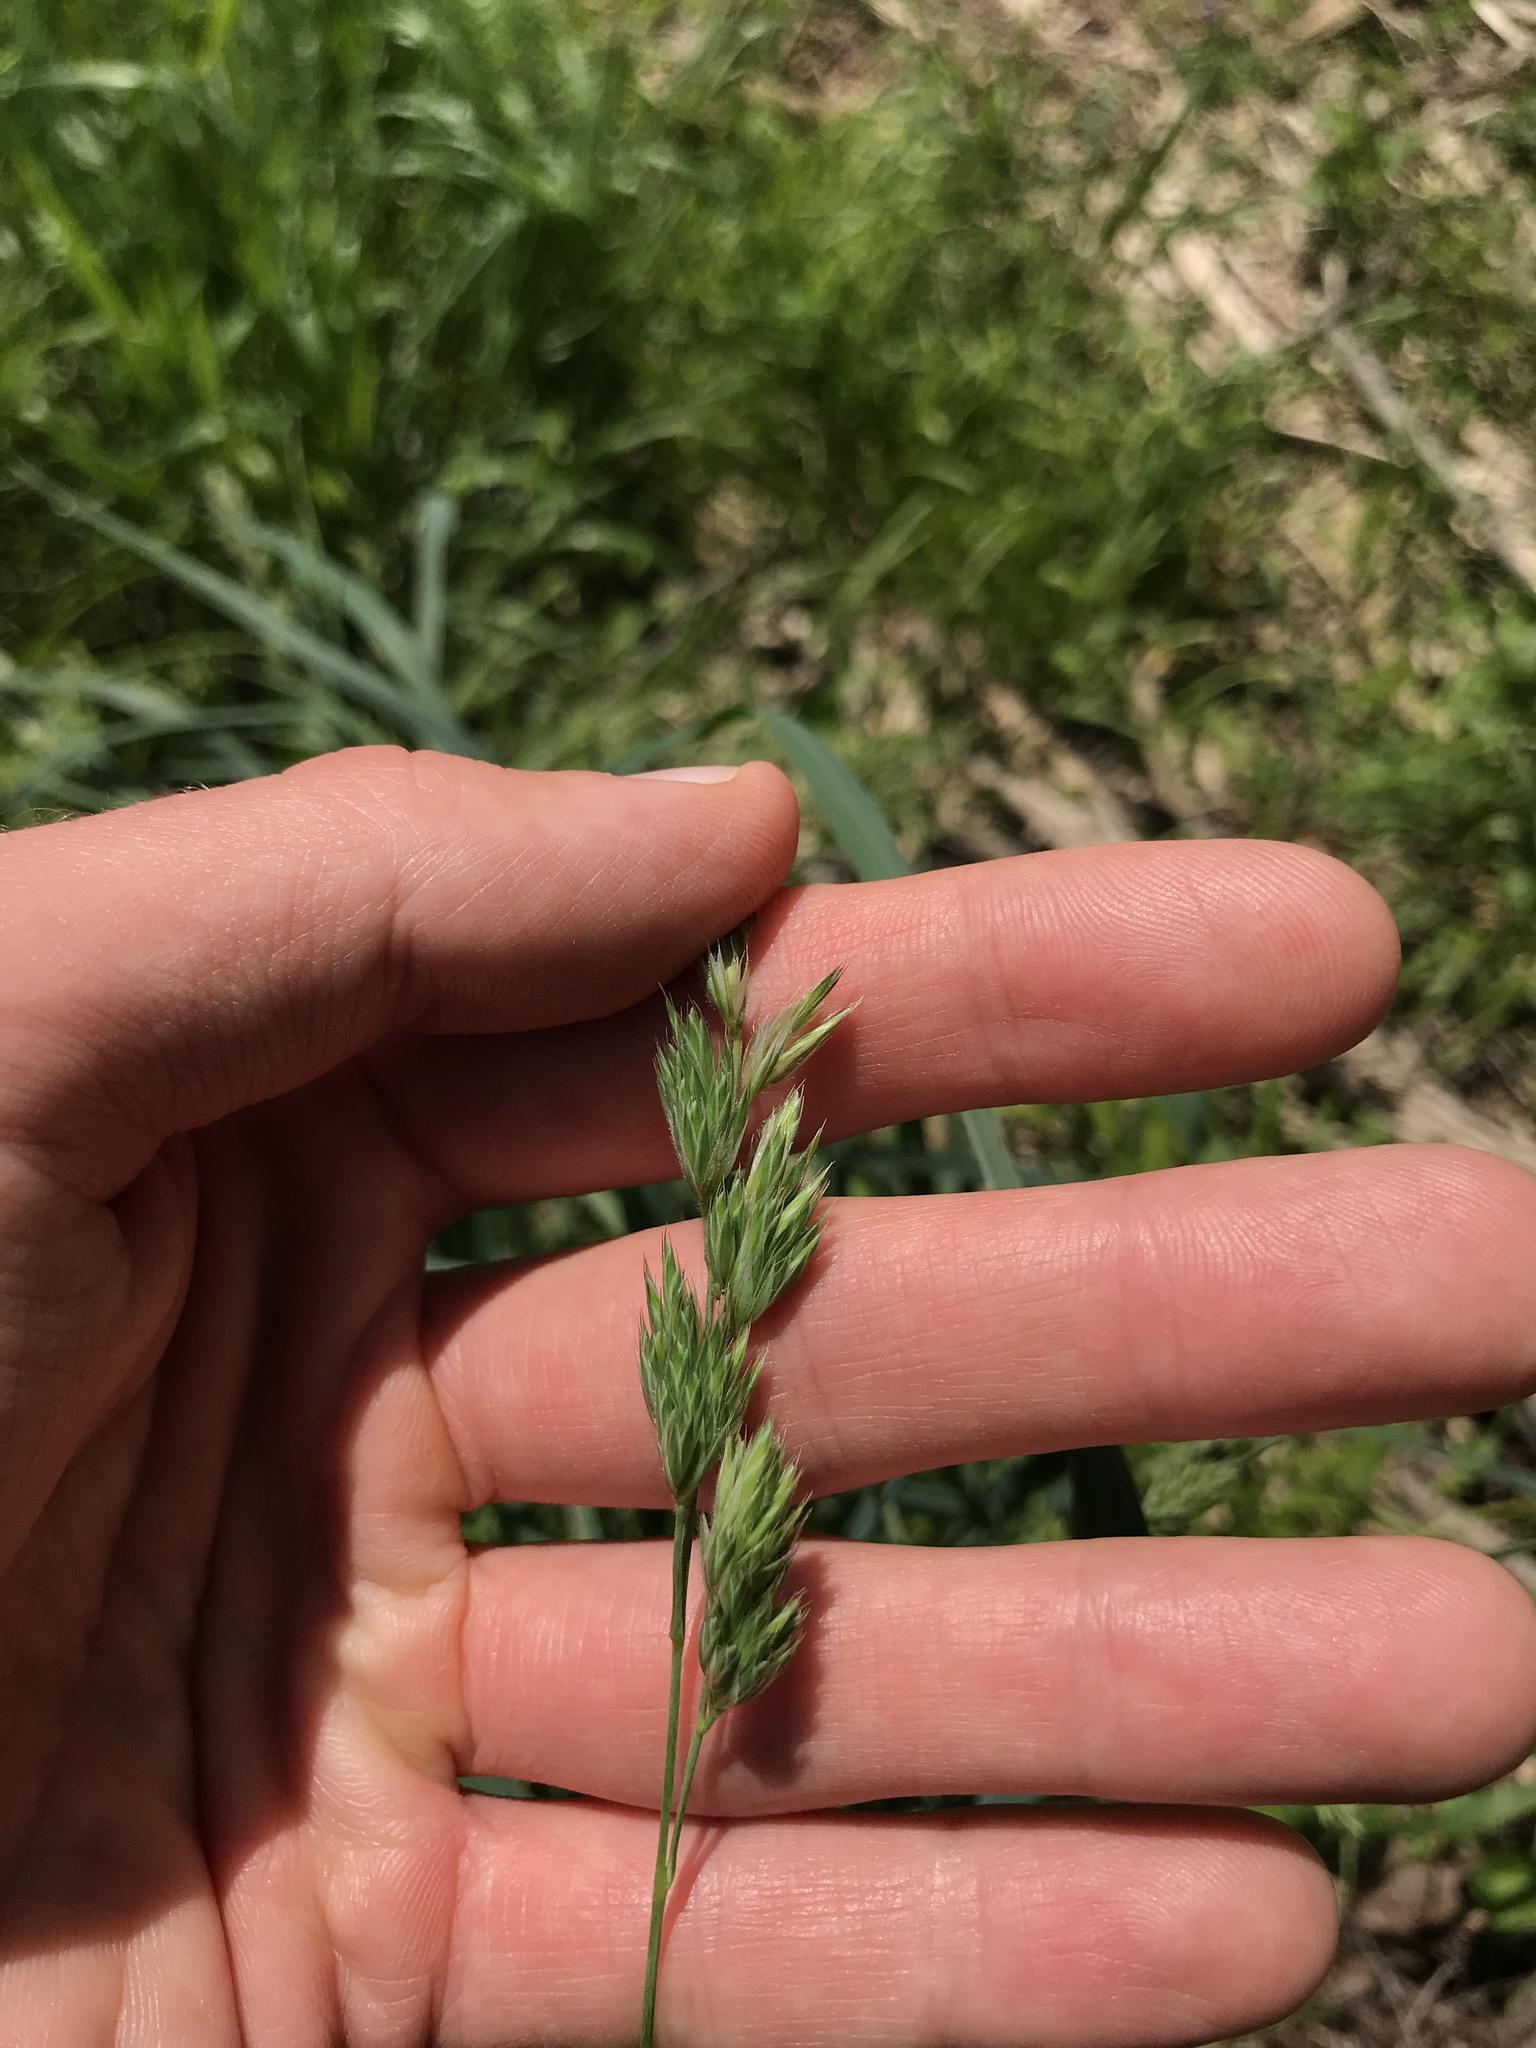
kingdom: Plantae
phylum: Tracheophyta
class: Liliopsida
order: Poales
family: Poaceae
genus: Dactylis
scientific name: Dactylis glomerata
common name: Orchardgrass
